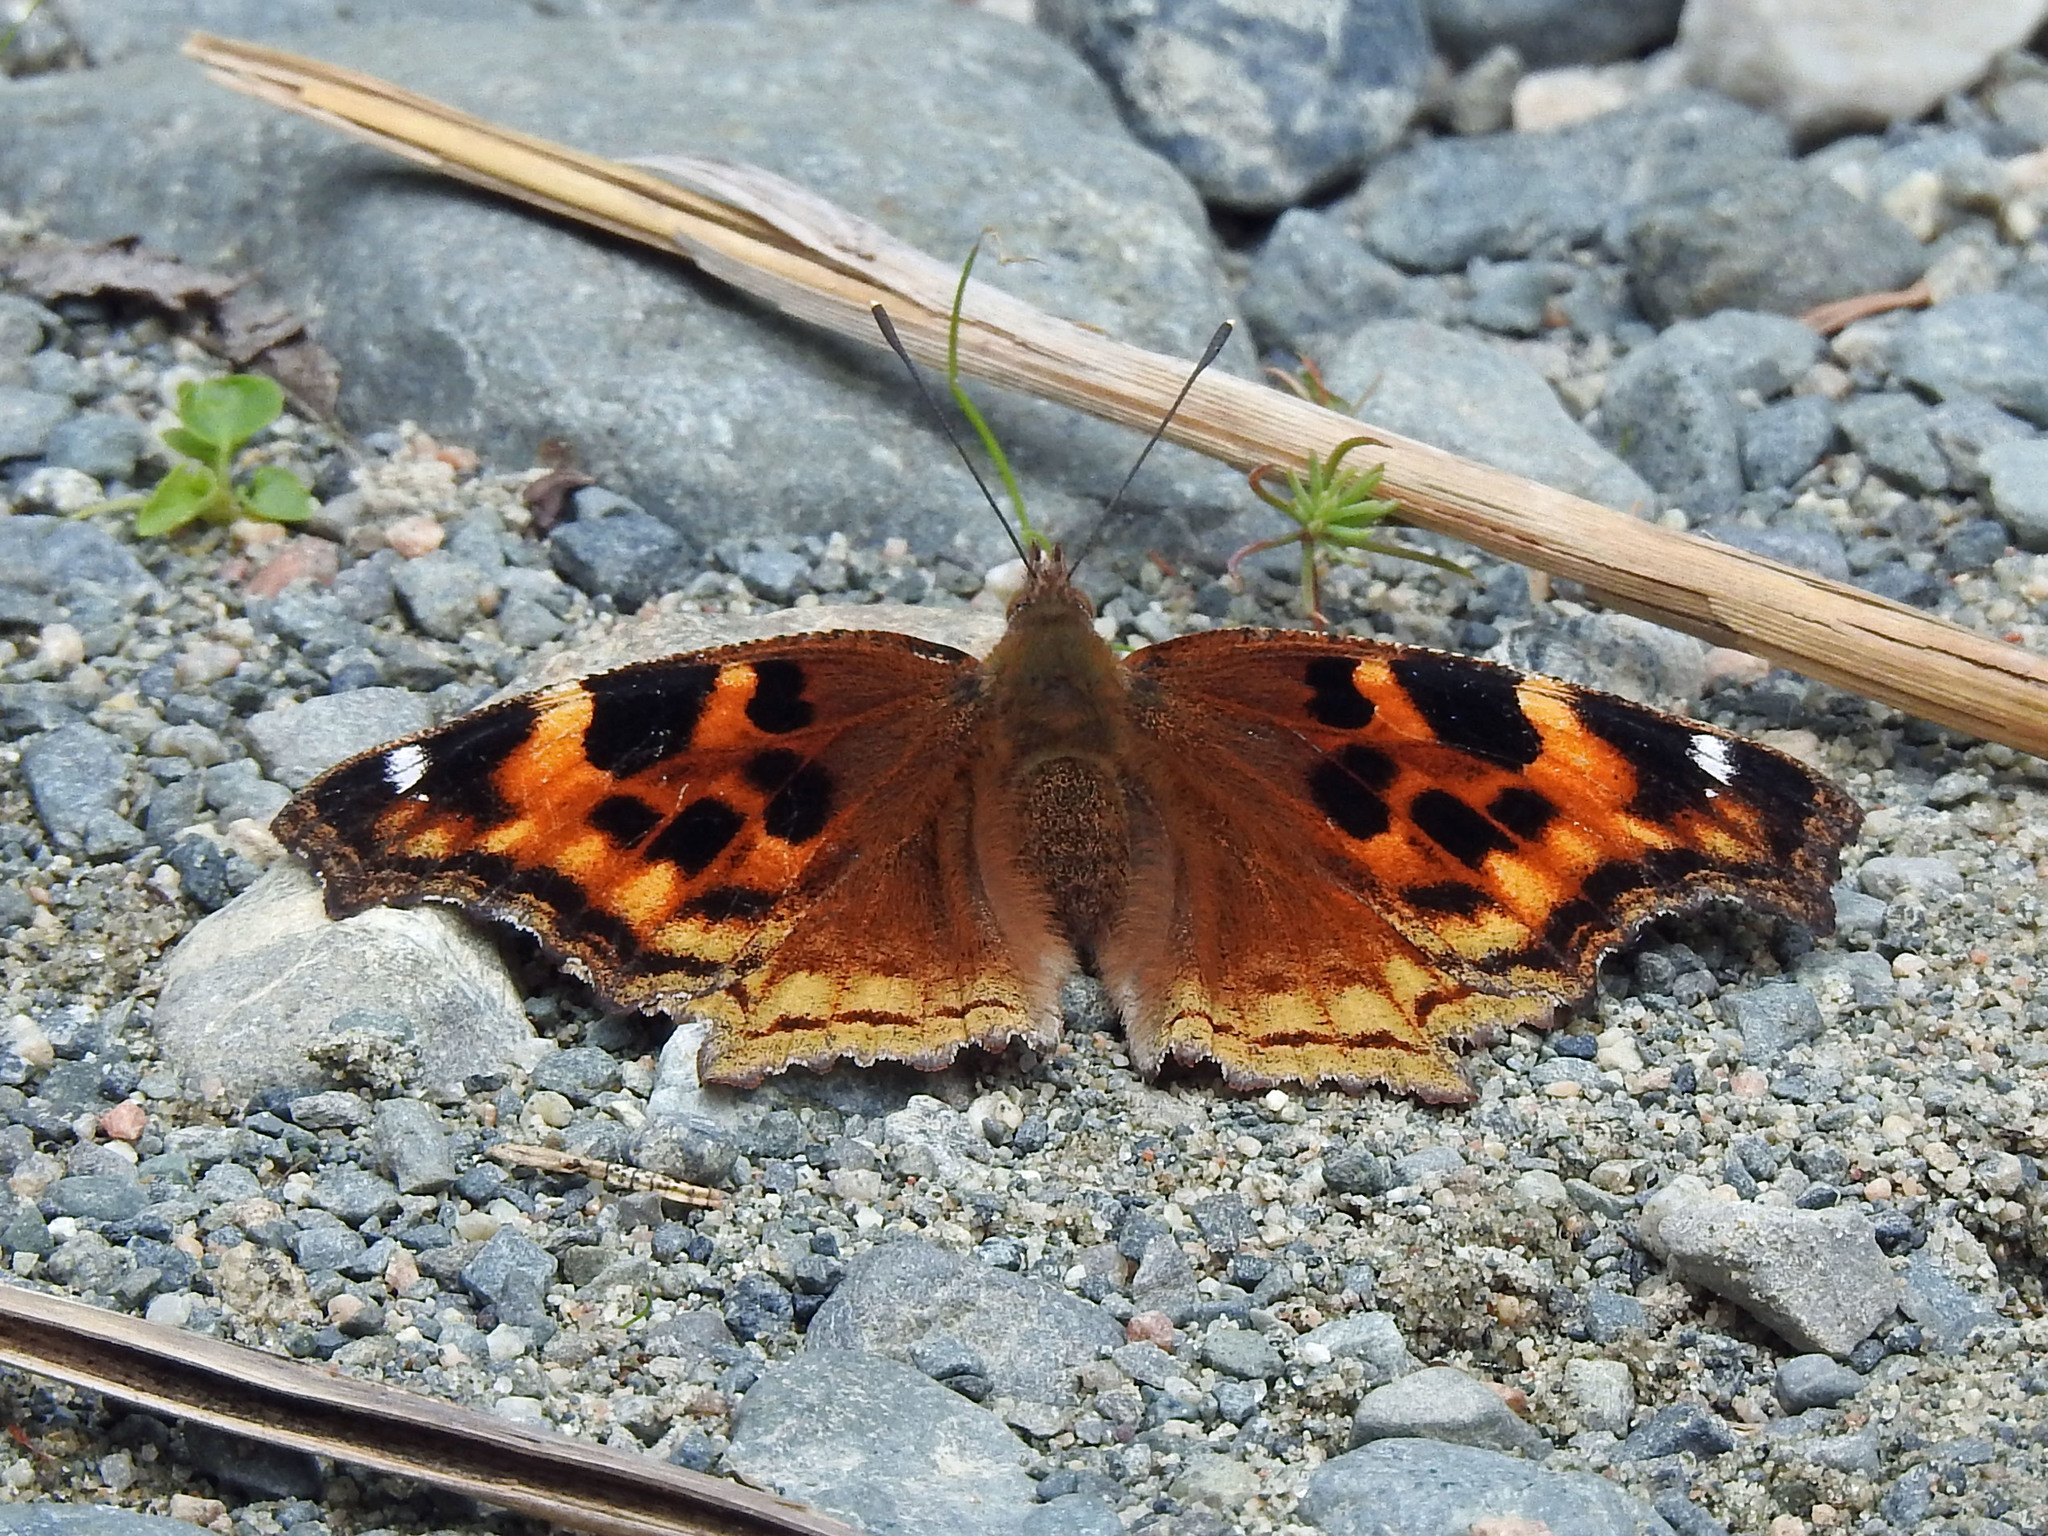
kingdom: Animalia
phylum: Arthropoda
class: Insecta
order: Lepidoptera
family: Nymphalidae
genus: Polygonia
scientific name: Polygonia vaualbum
